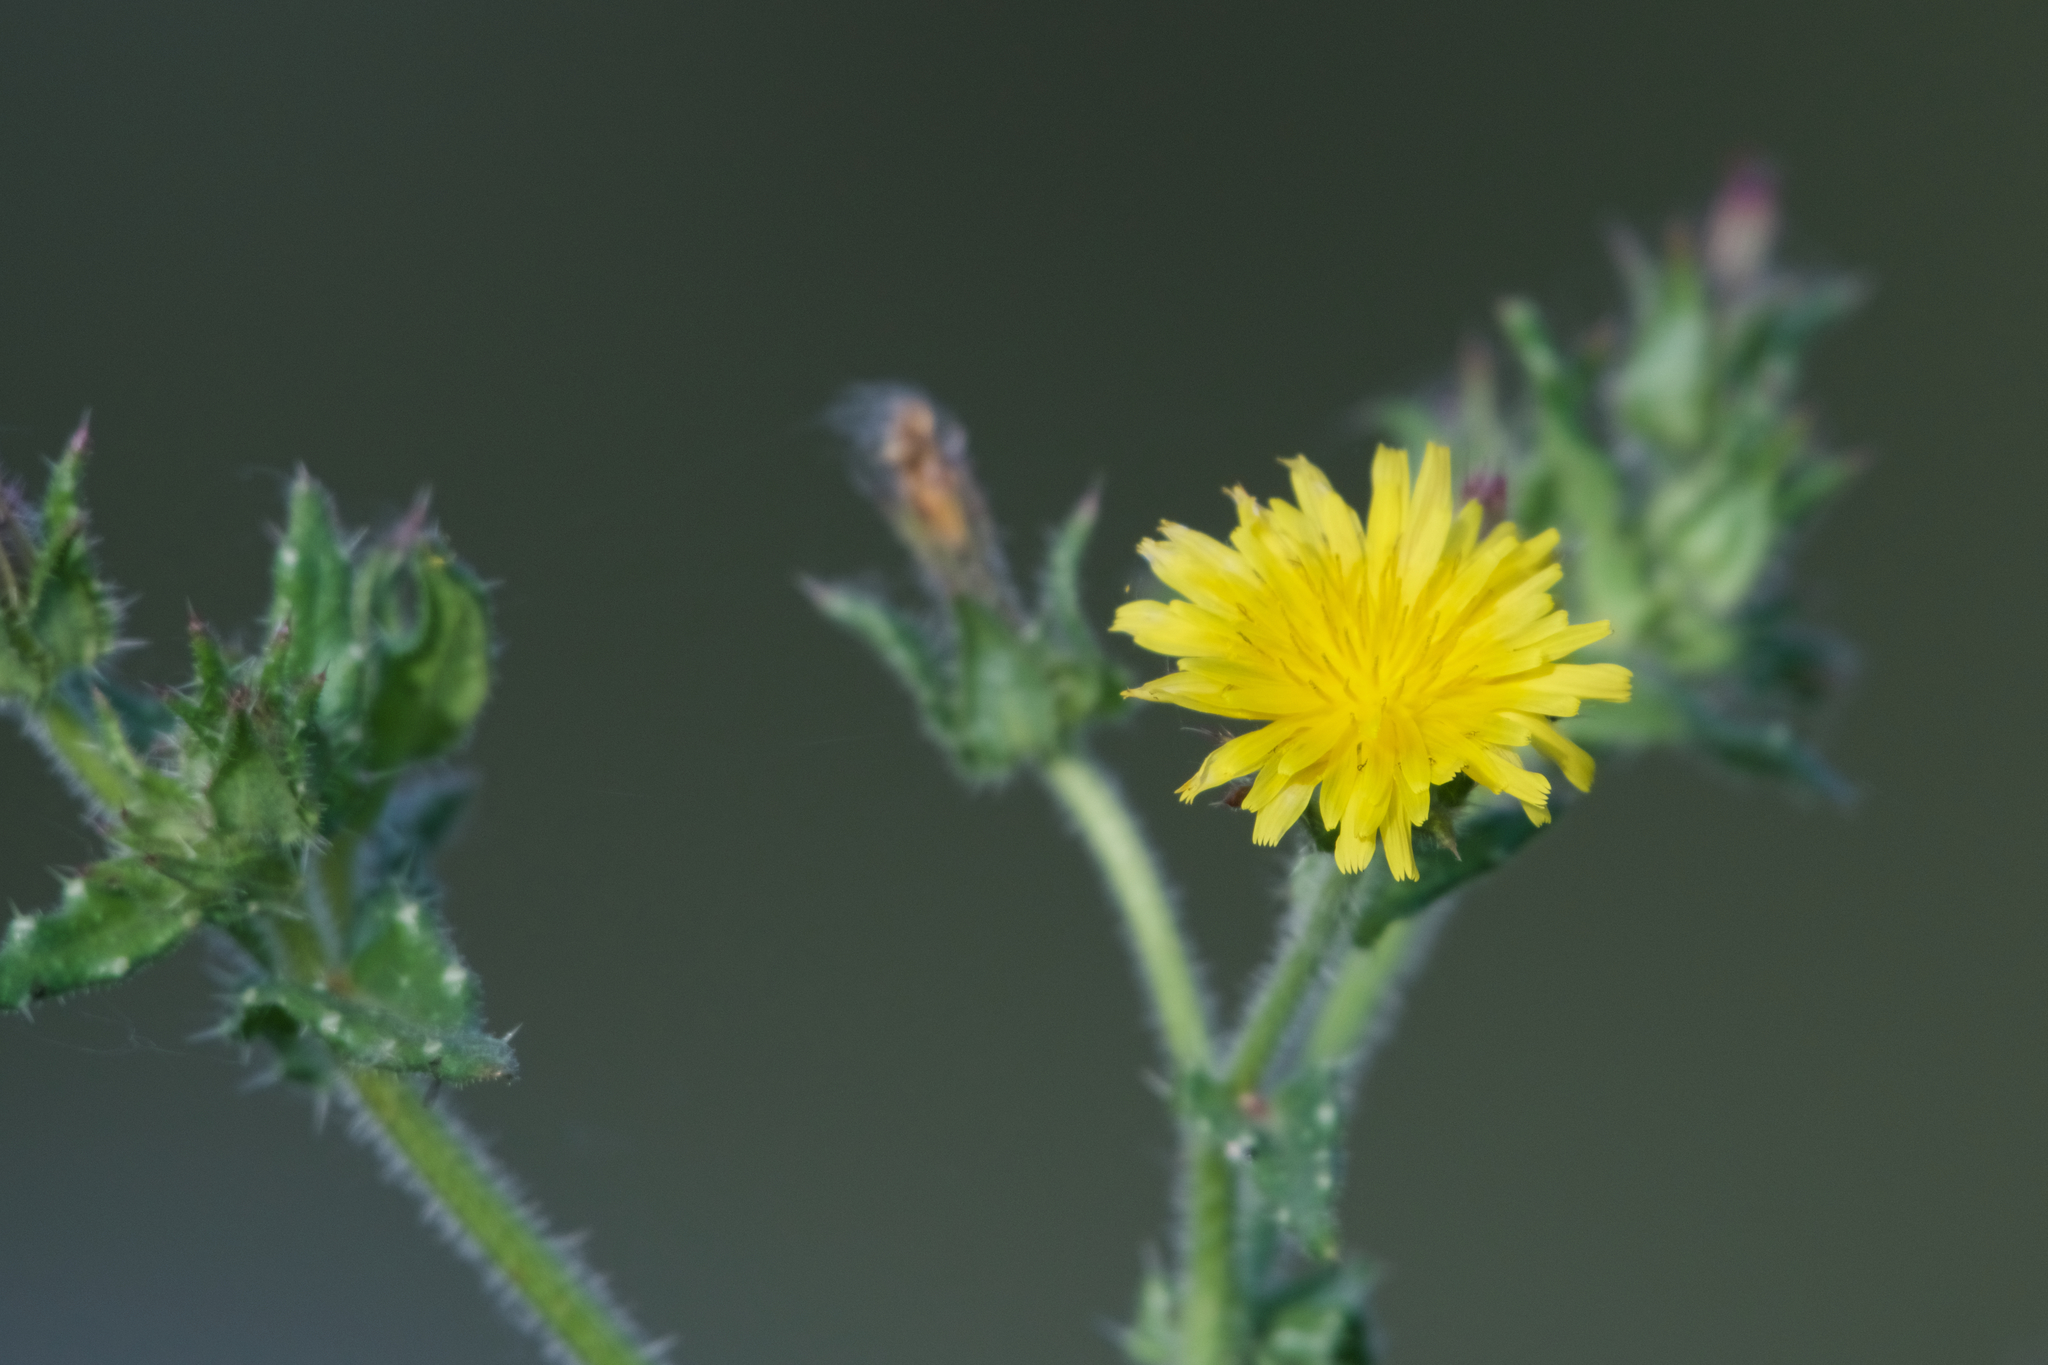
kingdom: Plantae
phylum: Tracheophyta
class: Magnoliopsida
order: Asterales
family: Asteraceae
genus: Helminthotheca
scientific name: Helminthotheca echioides
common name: Ox-tongue
